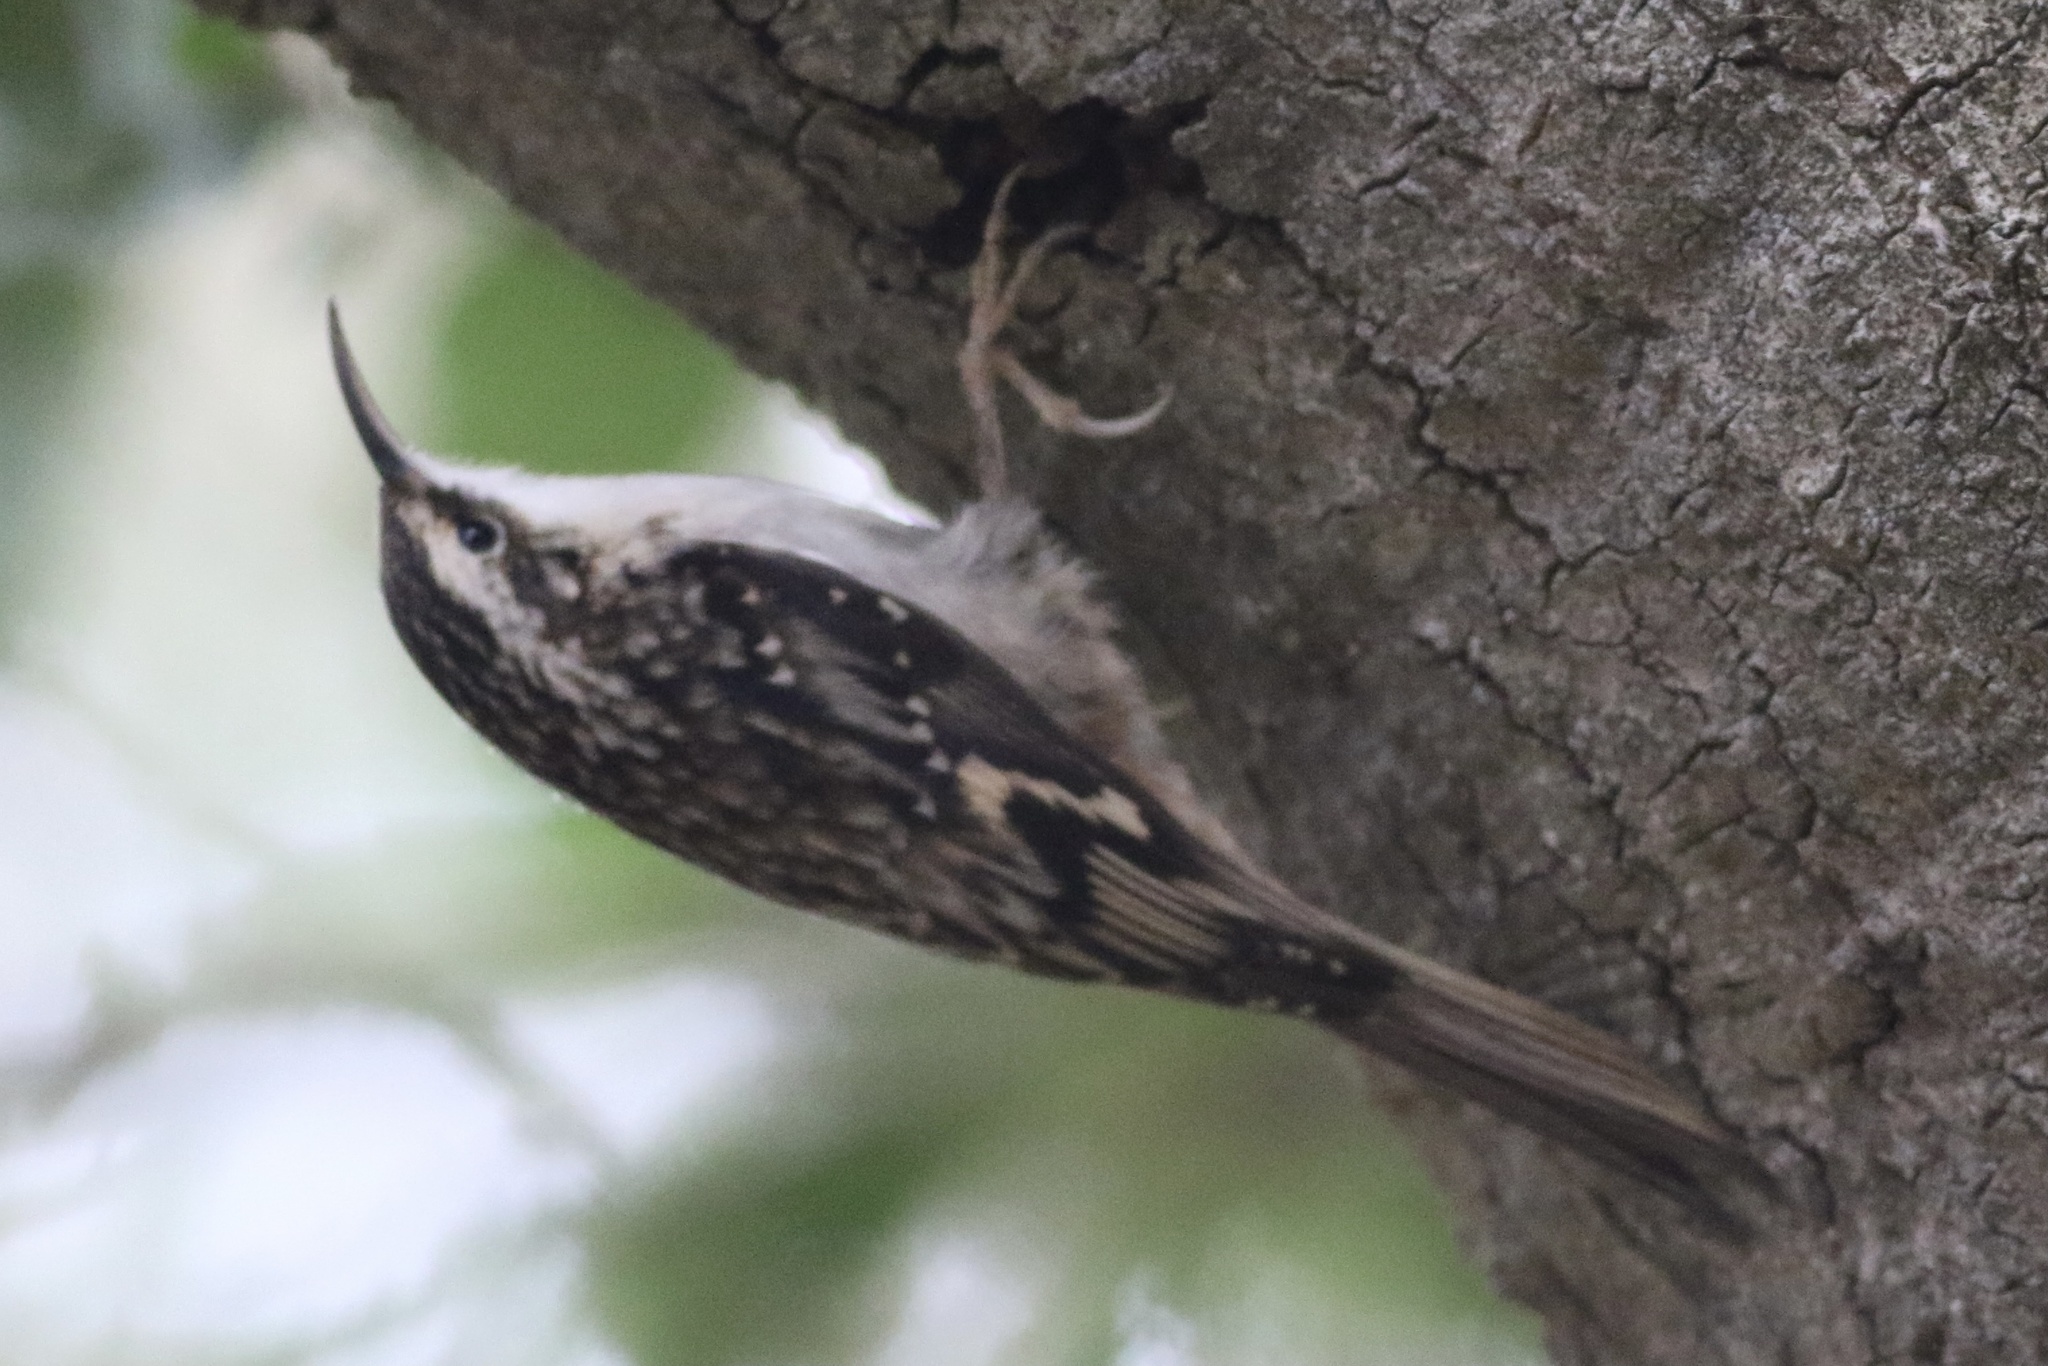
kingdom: Animalia
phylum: Chordata
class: Aves
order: Passeriformes
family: Certhiidae
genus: Certhia
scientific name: Certhia americana
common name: Brown creeper
